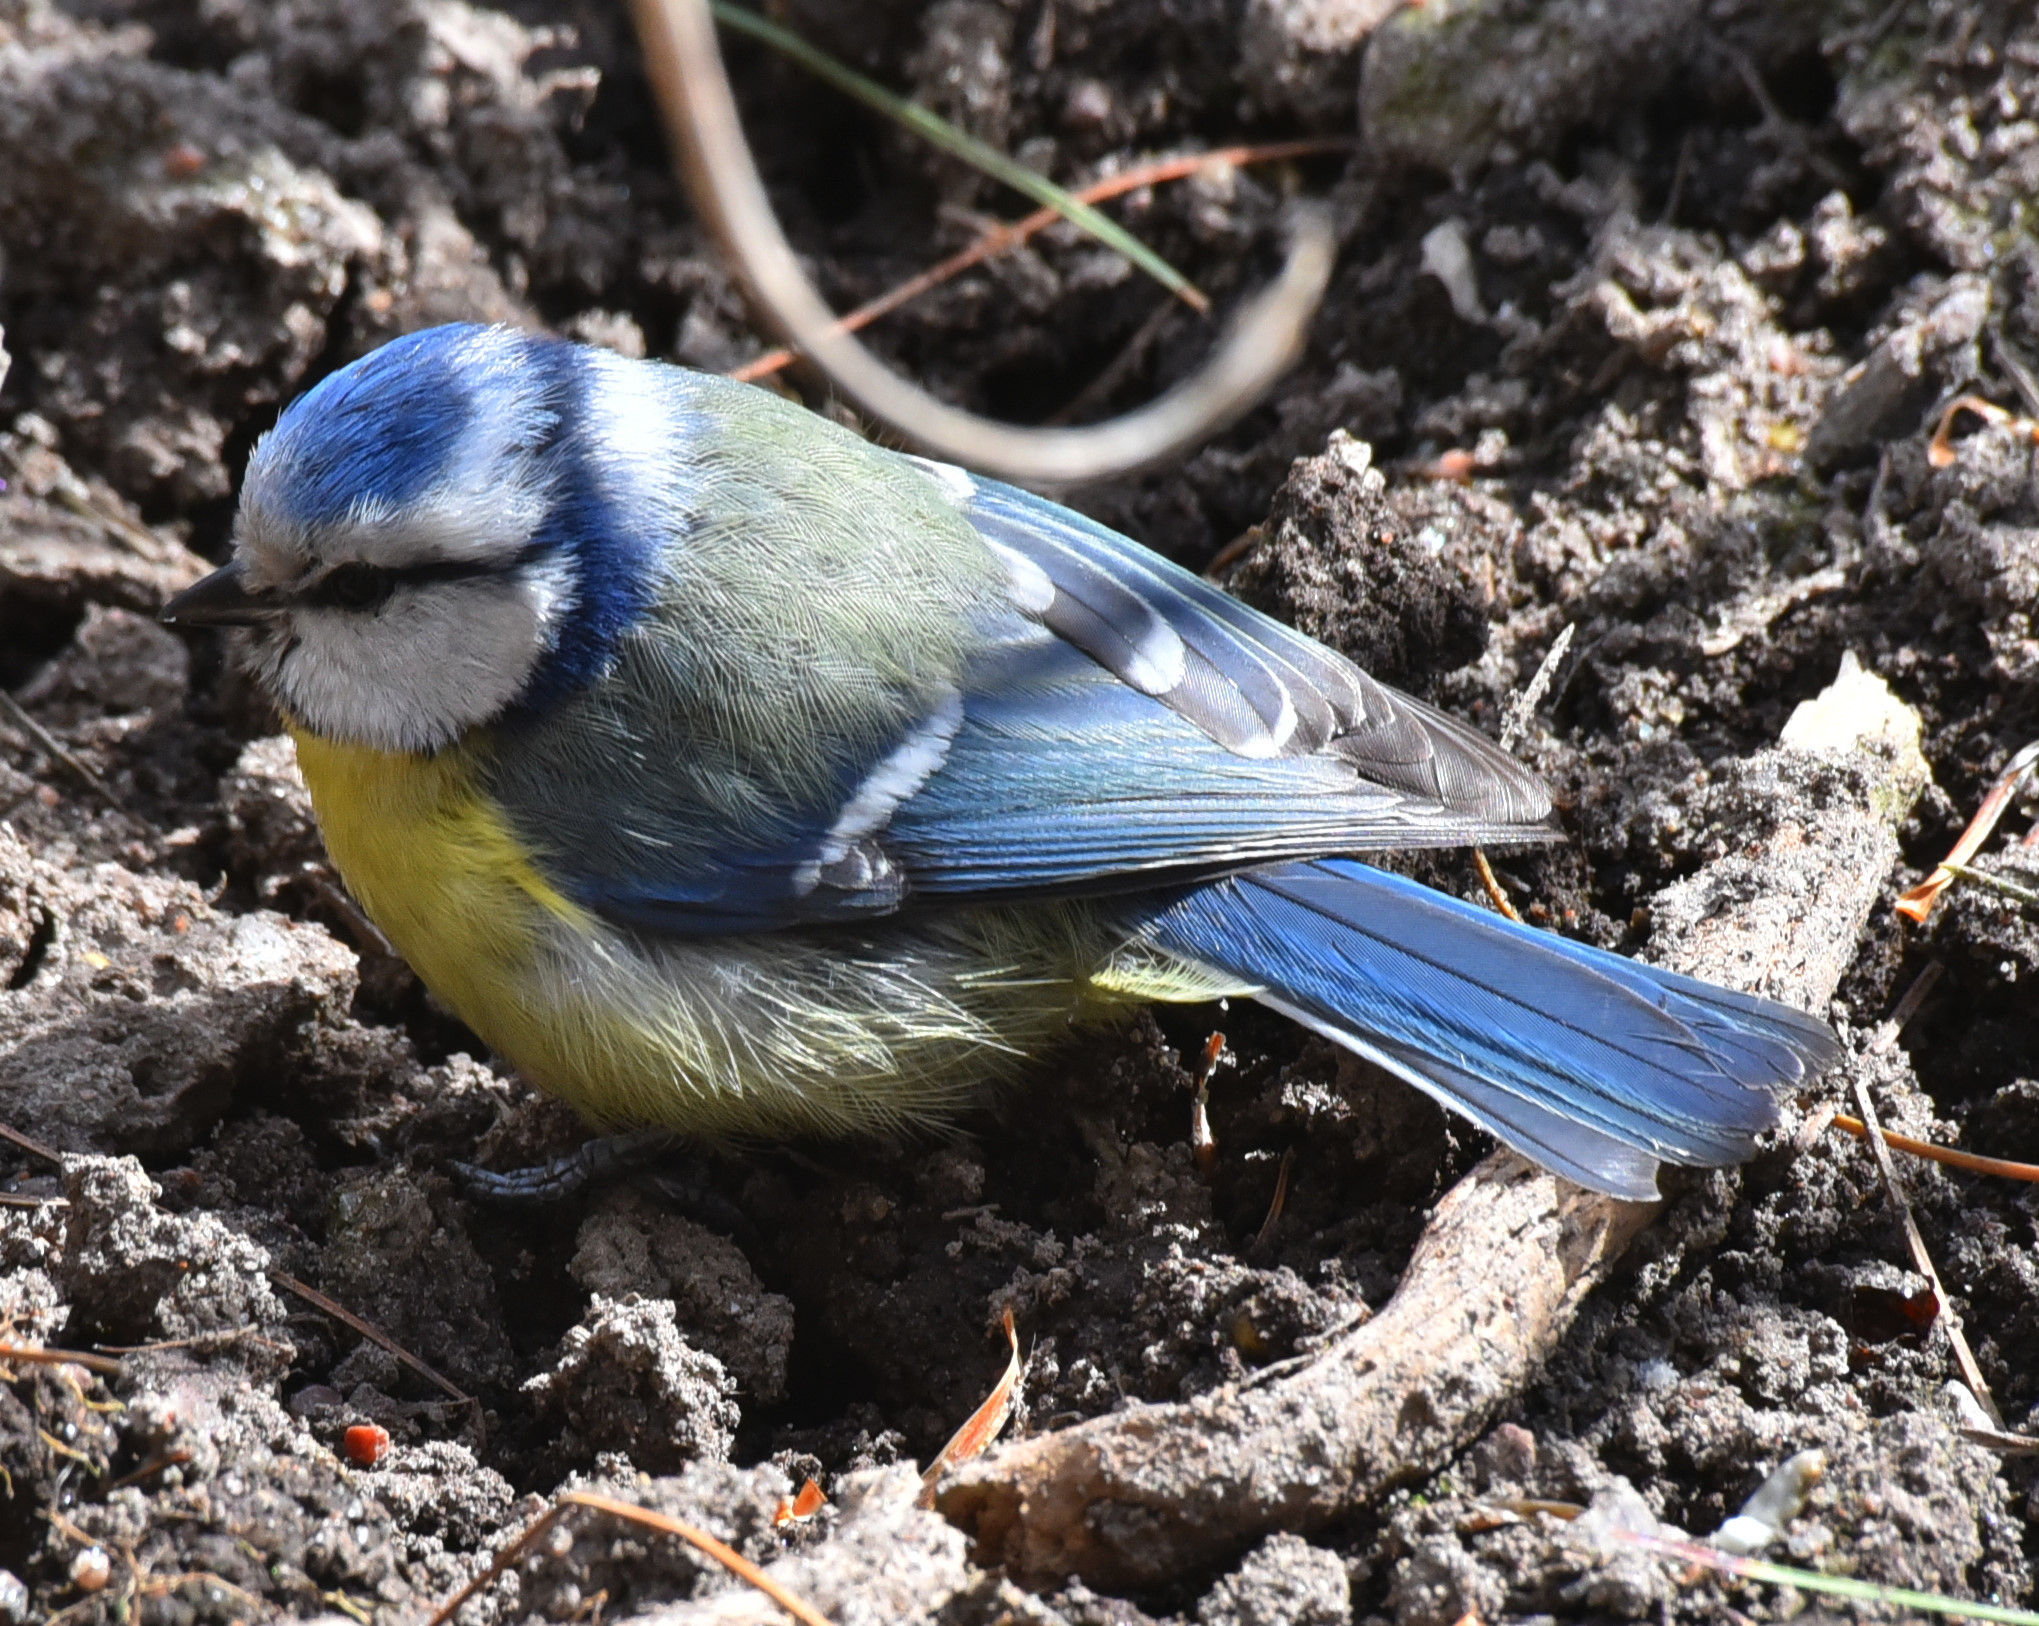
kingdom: Animalia
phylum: Chordata
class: Aves
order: Passeriformes
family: Paridae
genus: Cyanistes
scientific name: Cyanistes caeruleus
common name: Eurasian blue tit
